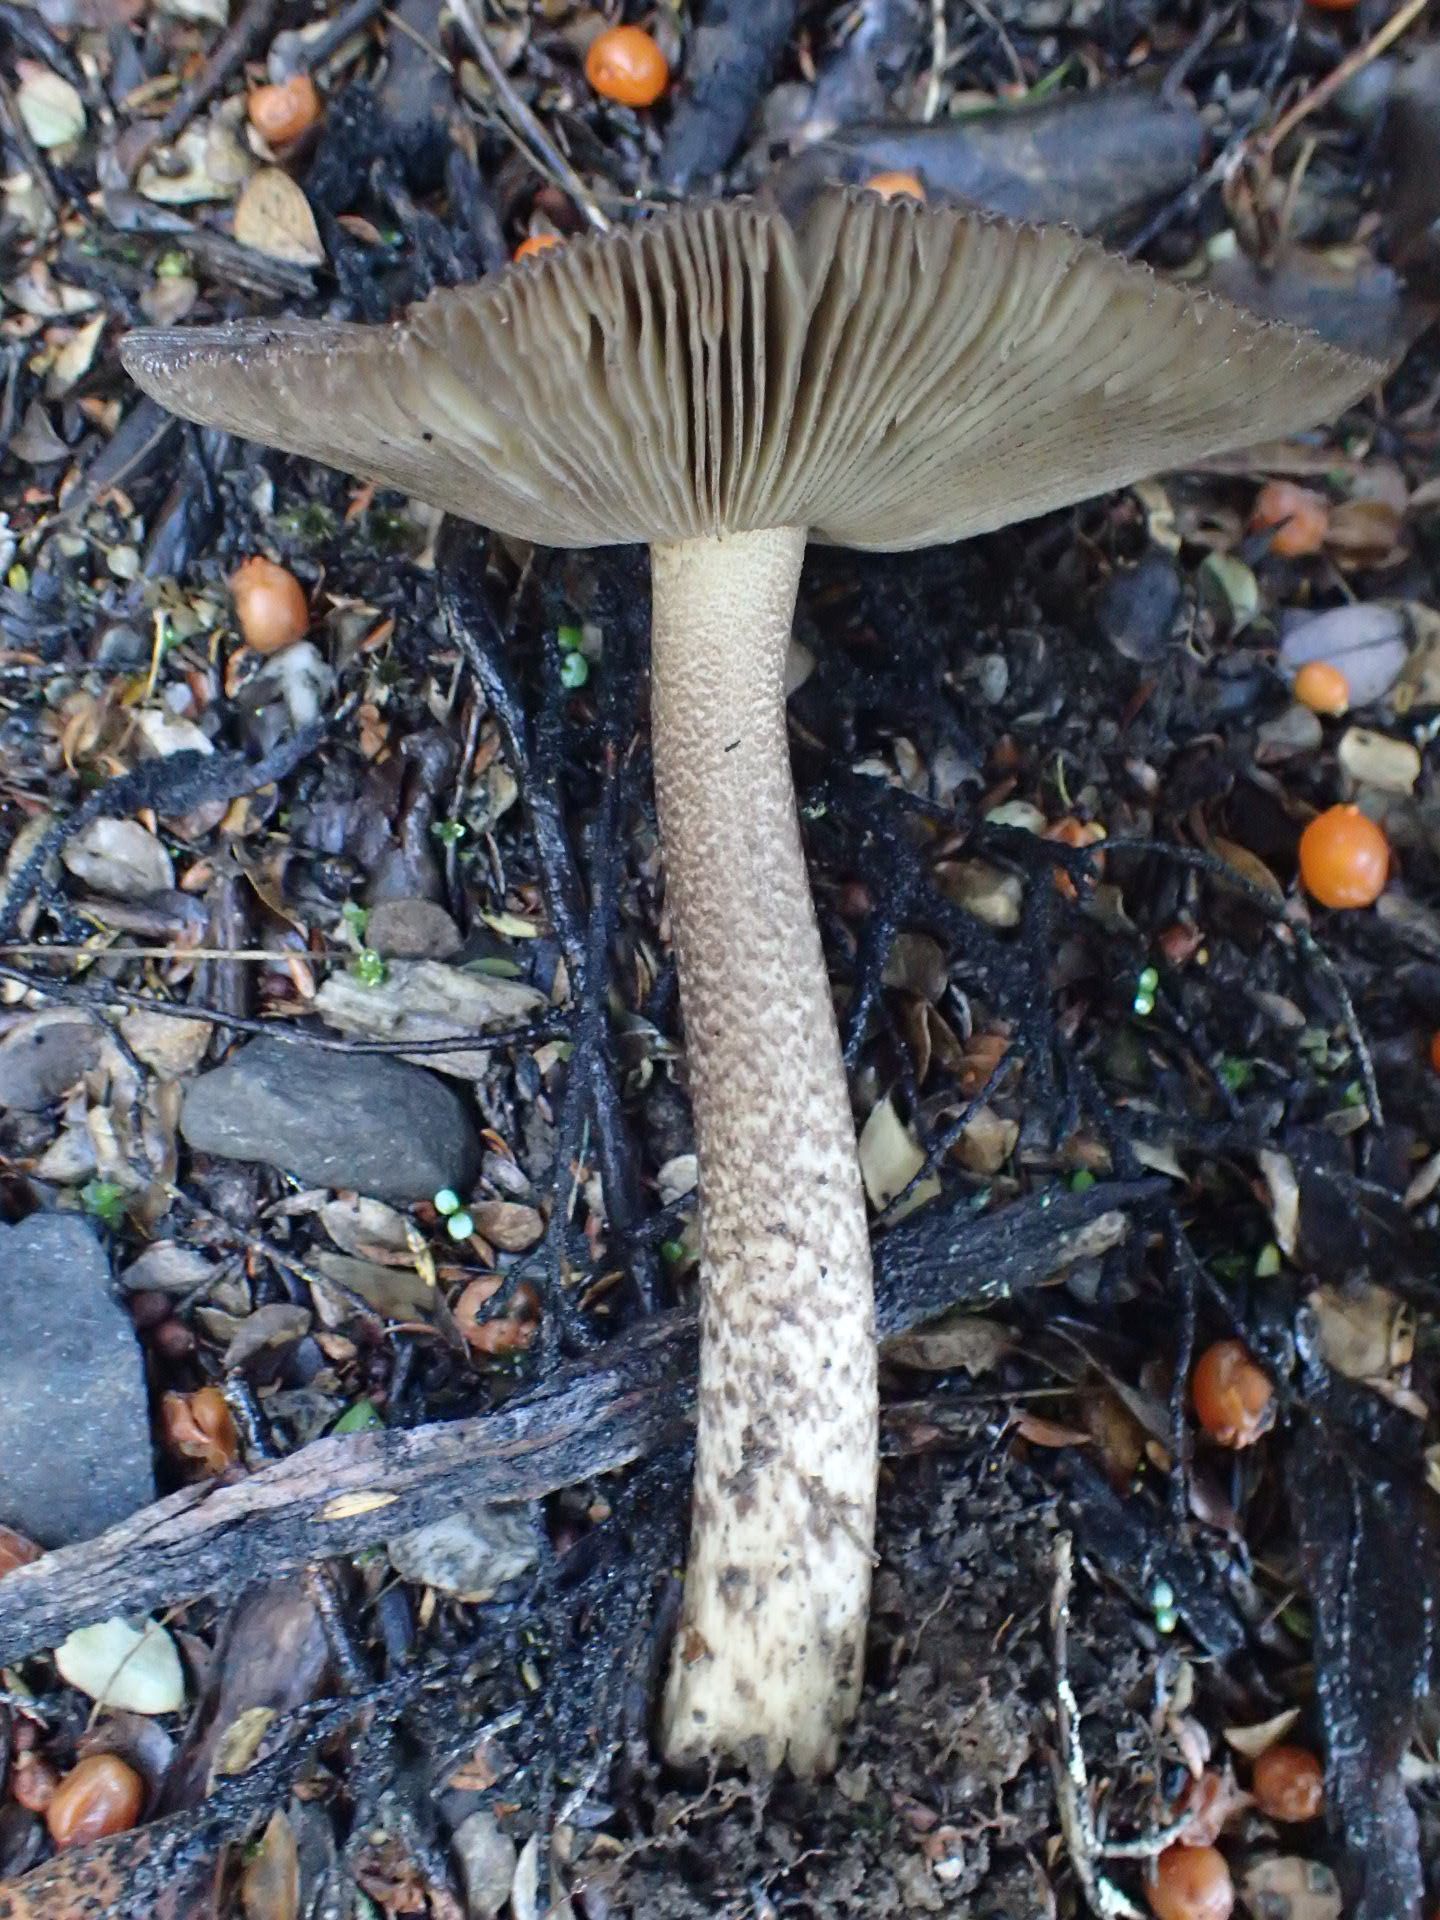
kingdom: Fungi
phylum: Basidiomycota
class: Agaricomycetes
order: Agaricales
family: Amanitaceae
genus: Amanita
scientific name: Amanita pekeoides
